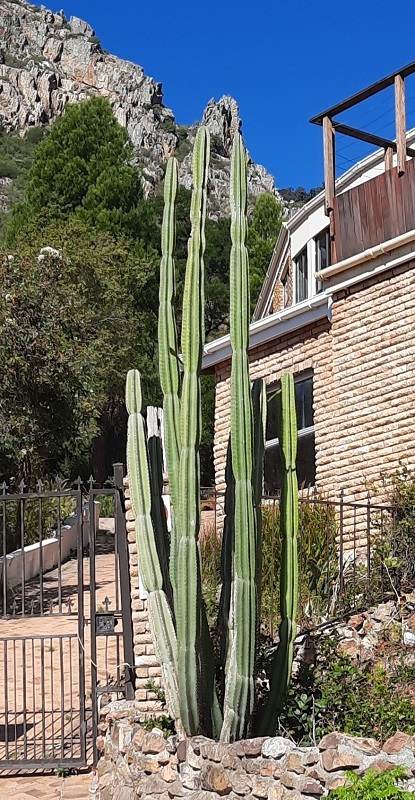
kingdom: Plantae
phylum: Tracheophyta
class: Magnoliopsida
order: Caryophyllales
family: Cactaceae
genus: Cereus
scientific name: Cereus jamacaru
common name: Queen-of-the-night
